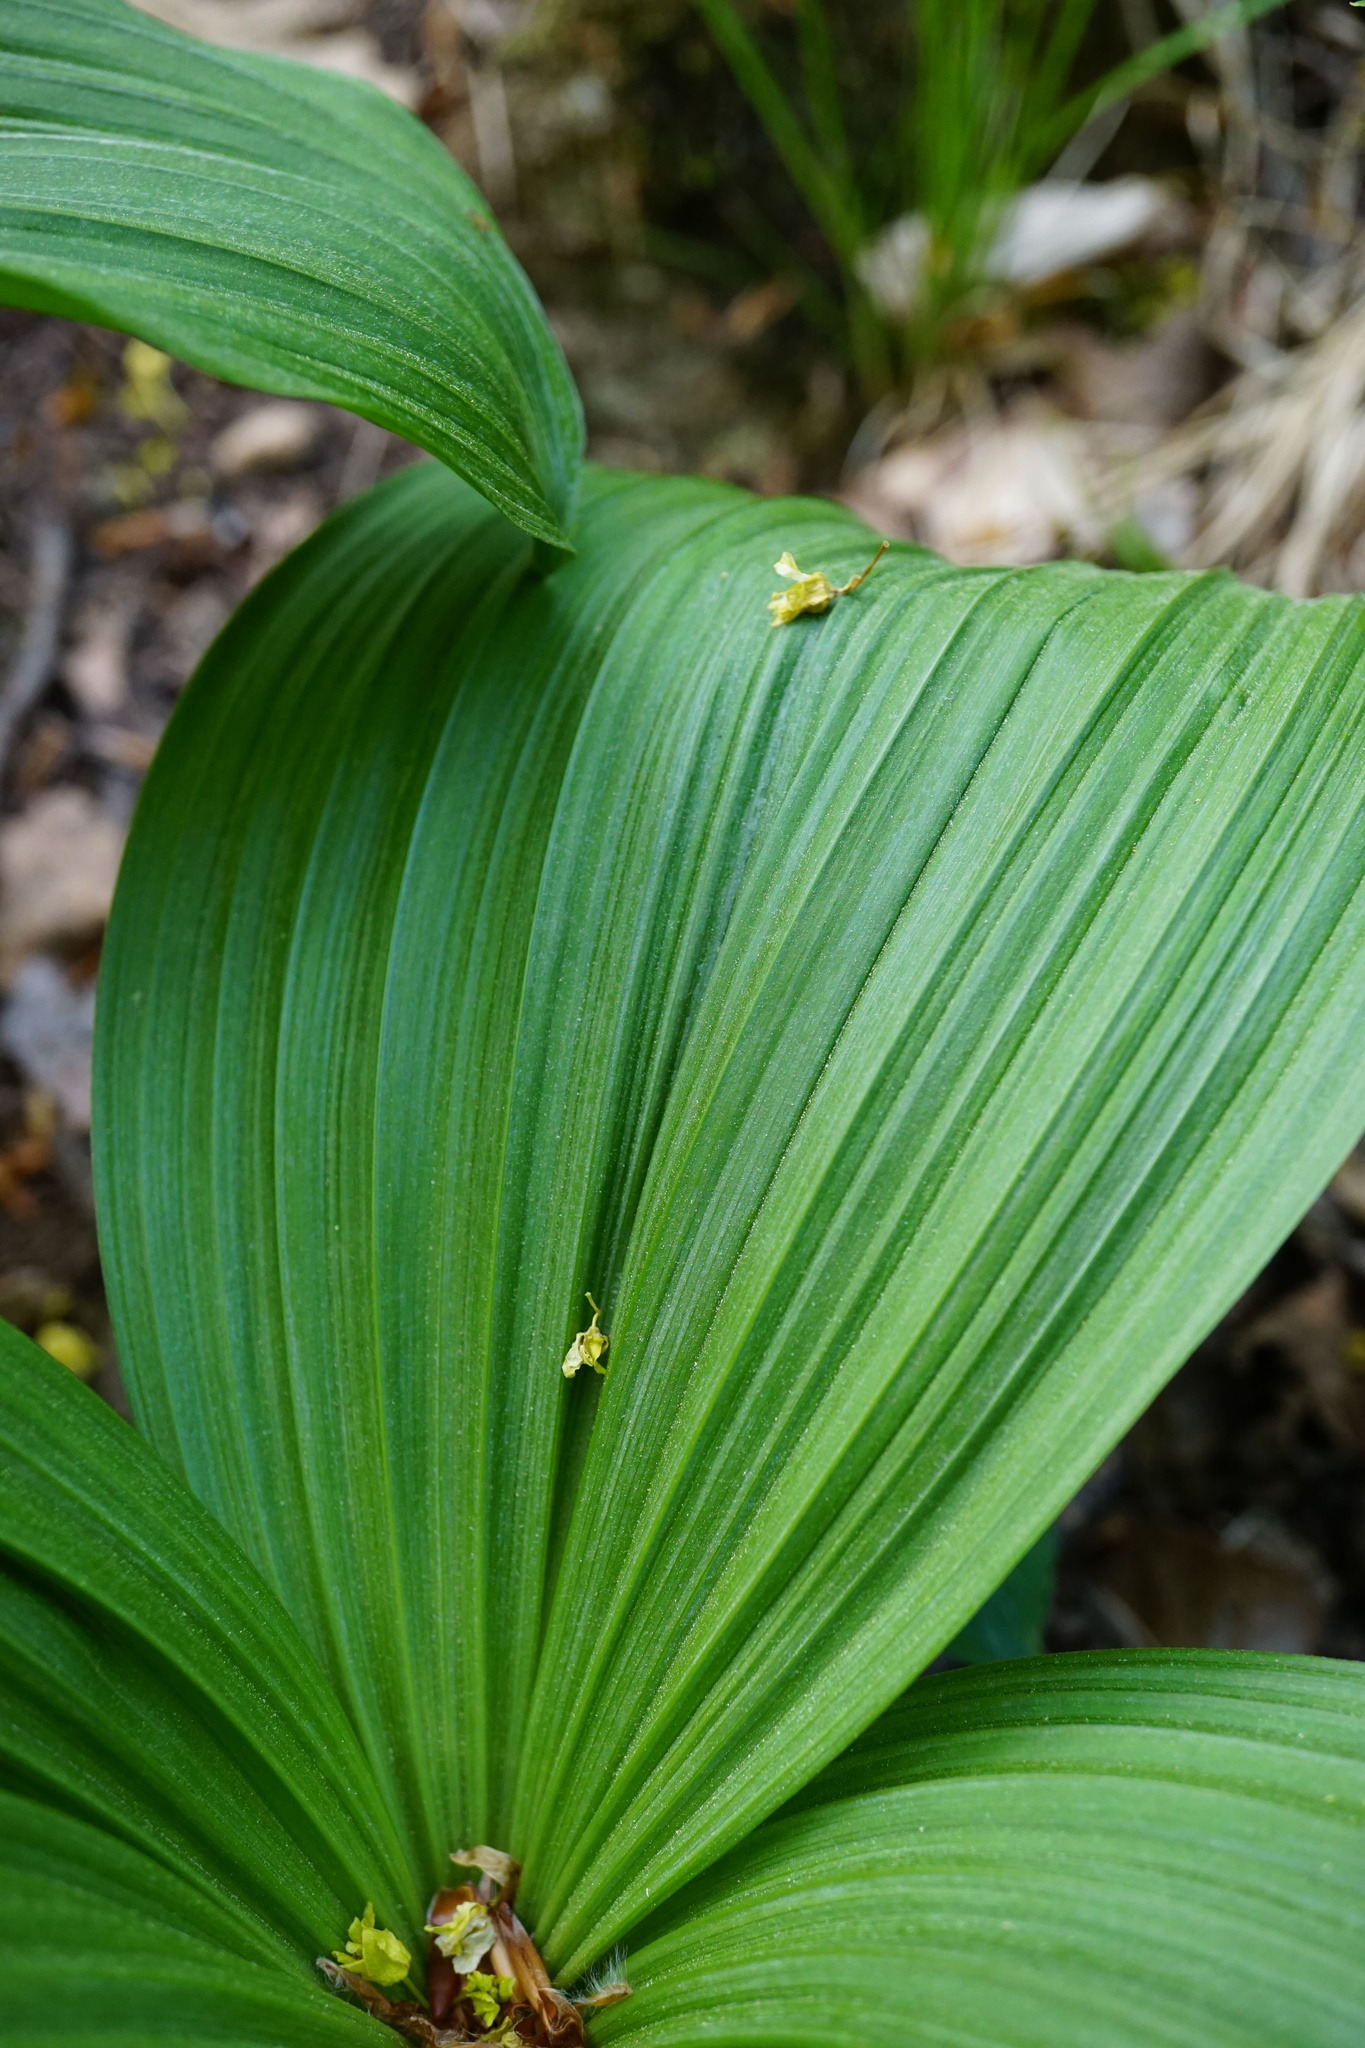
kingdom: Plantae
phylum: Tracheophyta
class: Liliopsida
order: Liliales
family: Melanthiaceae
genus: Veratrum
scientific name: Veratrum nigrum
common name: Black veratrum
